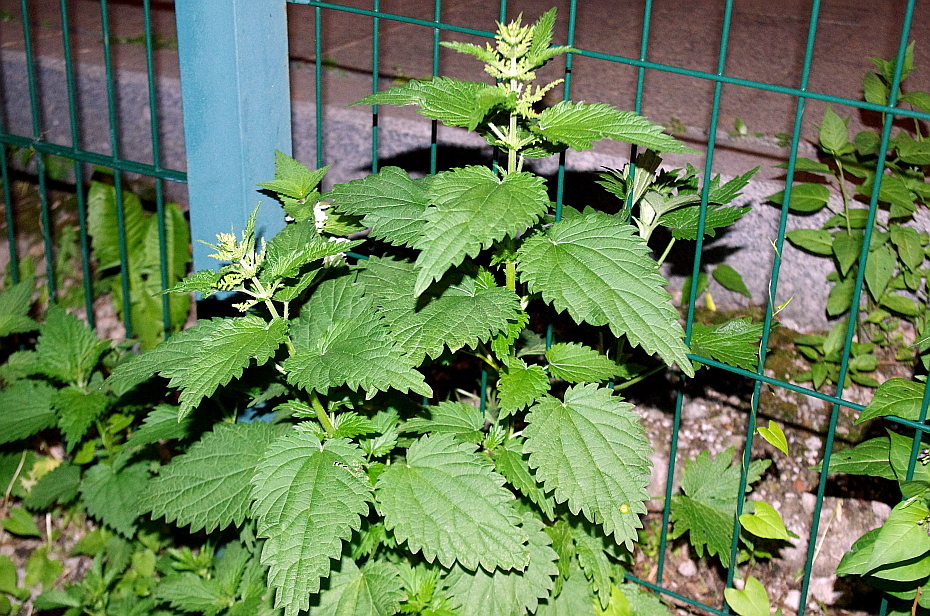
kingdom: Plantae
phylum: Tracheophyta
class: Magnoliopsida
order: Rosales
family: Urticaceae
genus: Urtica
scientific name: Urtica dioica
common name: Common nettle
